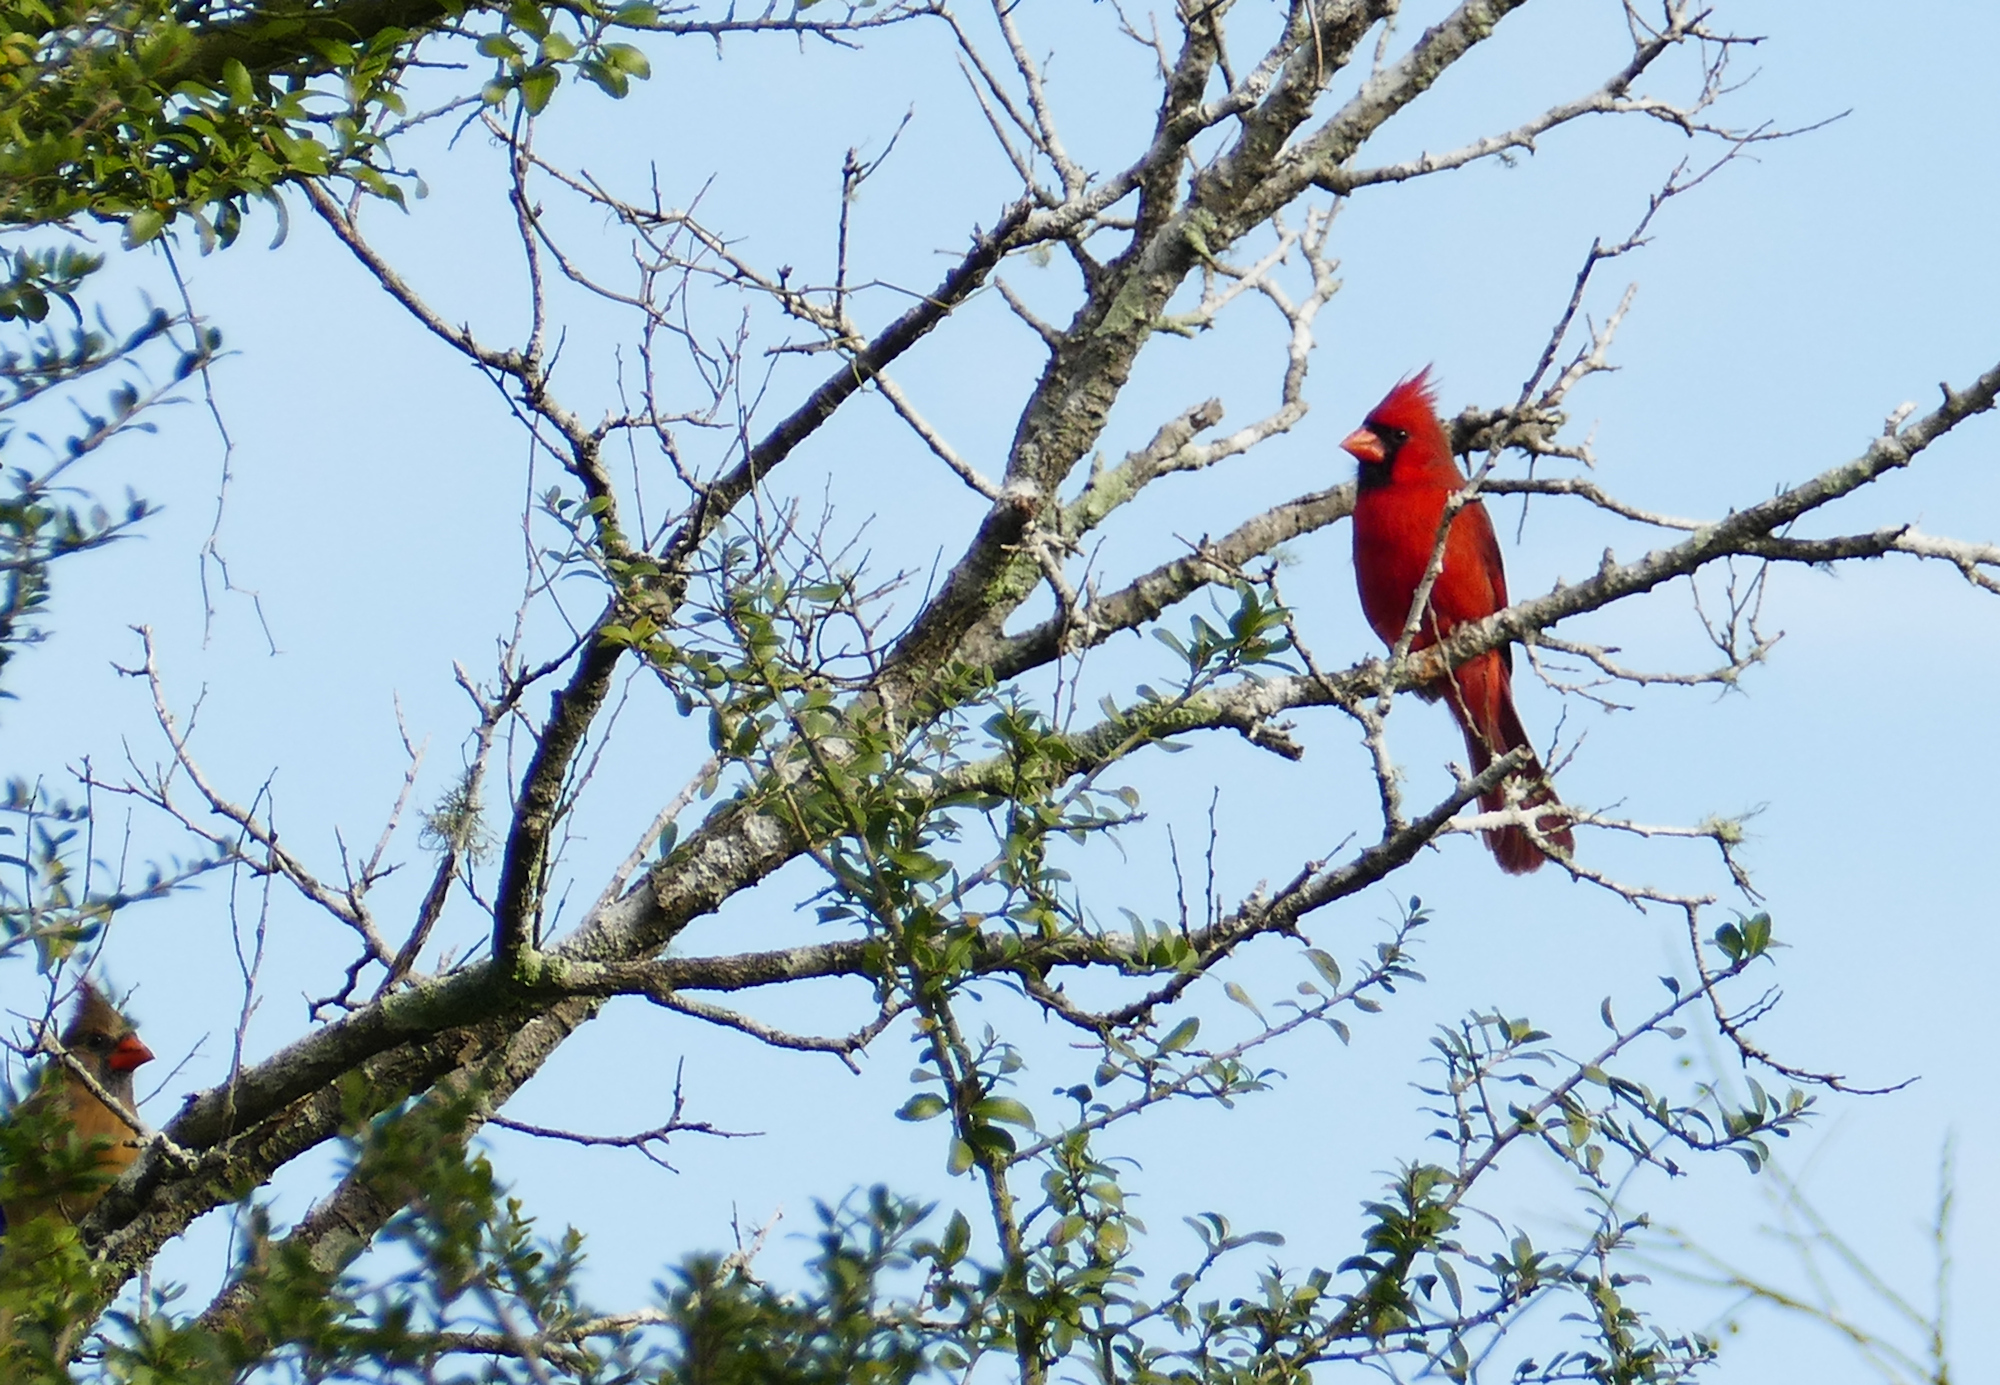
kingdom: Animalia
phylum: Chordata
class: Aves
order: Passeriformes
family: Cardinalidae
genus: Cardinalis
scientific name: Cardinalis cardinalis
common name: Northern cardinal
